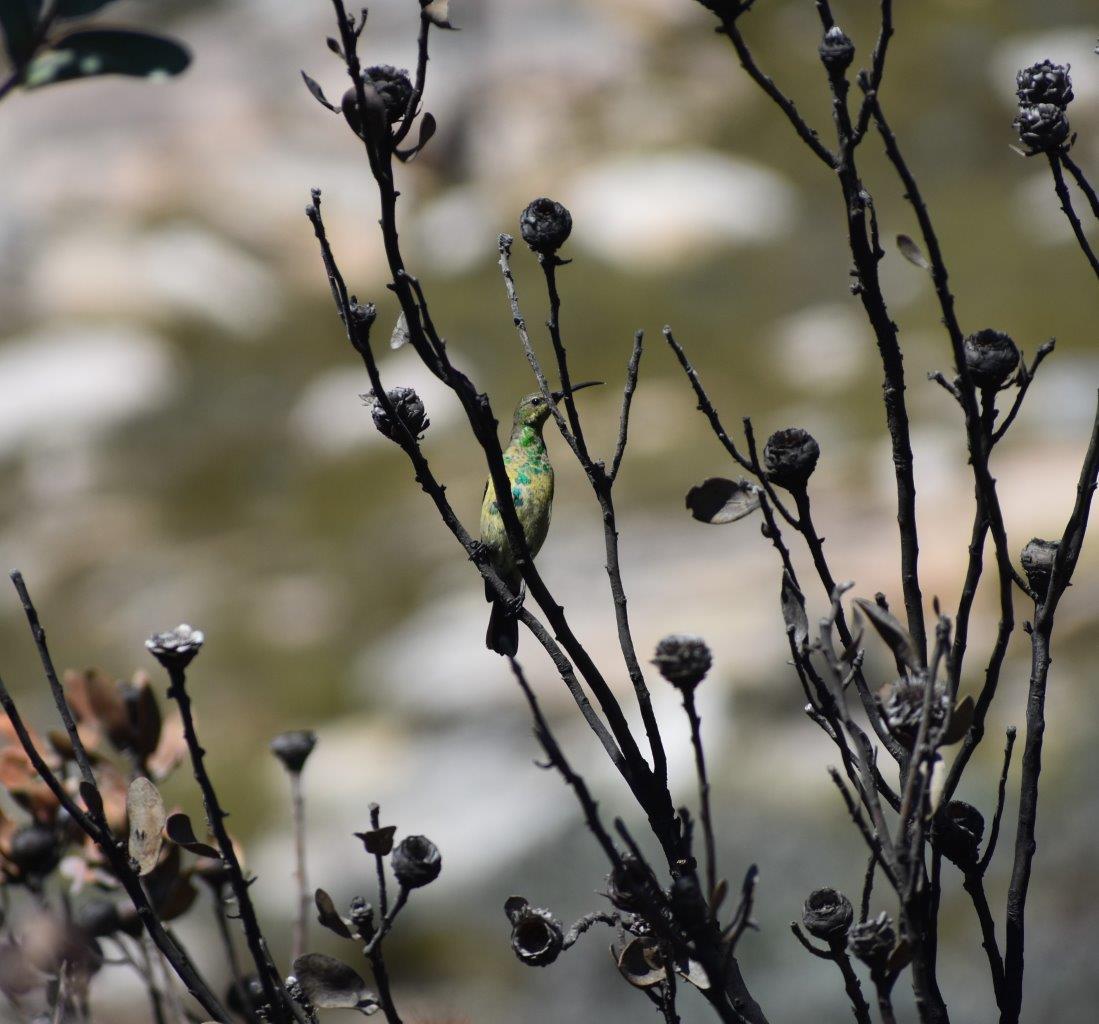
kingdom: Animalia
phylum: Chordata
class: Aves
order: Passeriformes
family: Nectariniidae
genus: Nectarinia
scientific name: Nectarinia famosa
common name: Malachite sunbird
